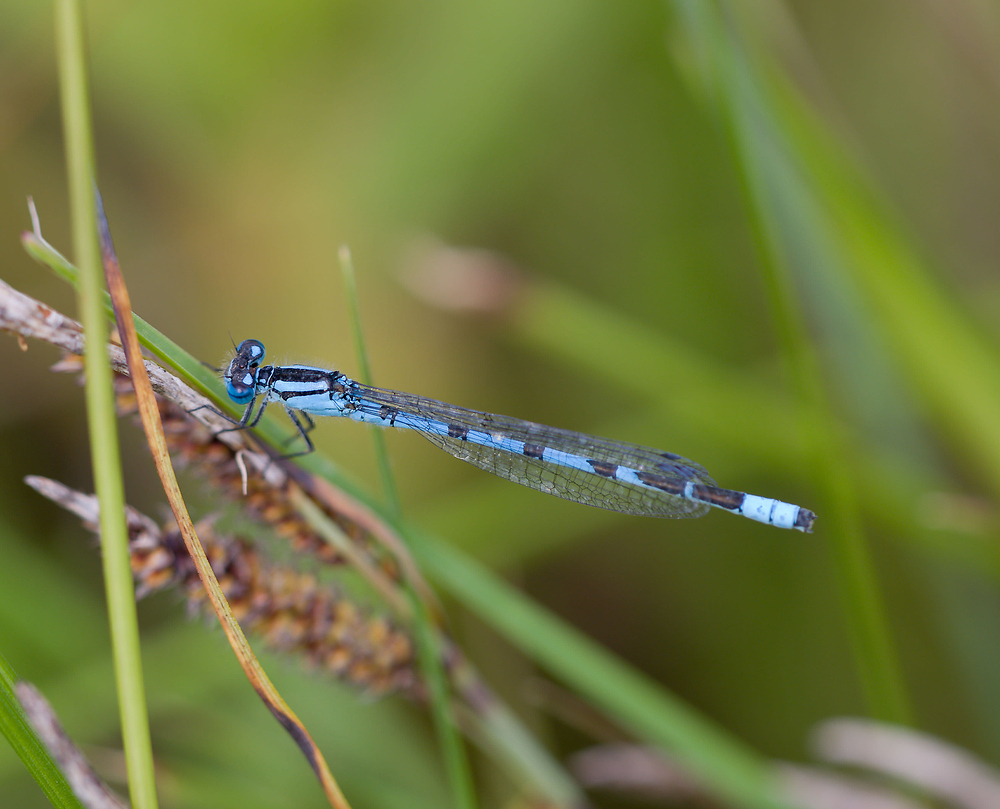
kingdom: Animalia
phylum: Arthropoda
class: Insecta
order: Odonata
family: Coenagrionidae
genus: Enallagma
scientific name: Enallagma cyathigerum
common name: Common blue damselfly
